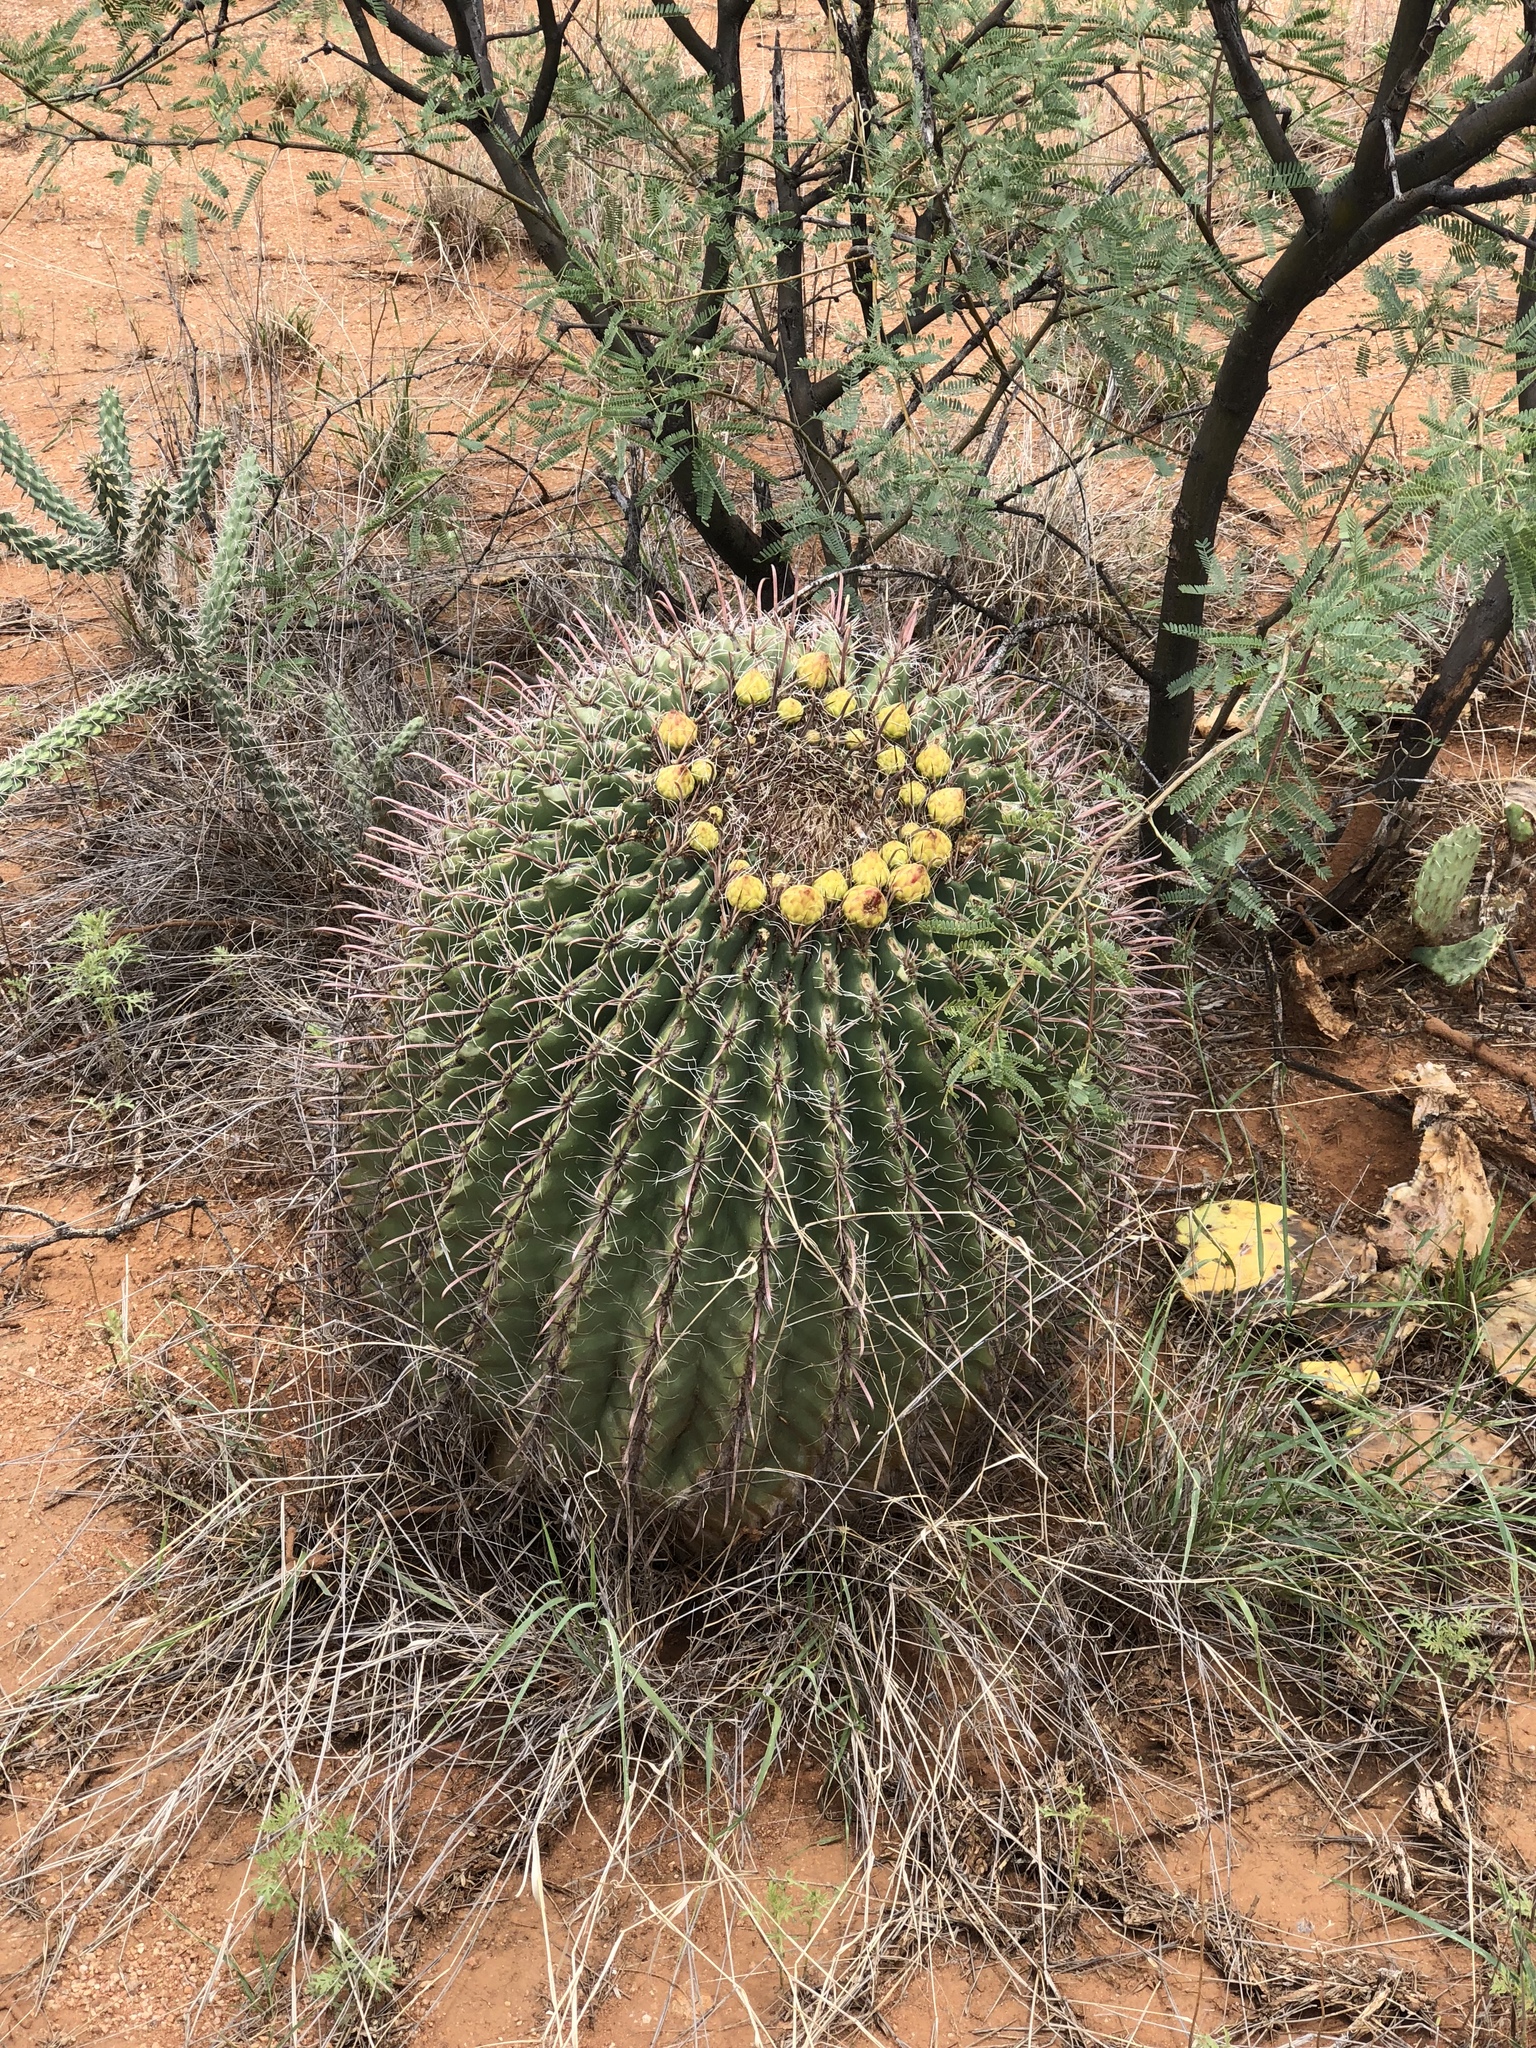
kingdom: Plantae
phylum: Tracheophyta
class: Magnoliopsida
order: Caryophyllales
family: Cactaceae
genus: Ferocactus
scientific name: Ferocactus wislizeni
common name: Candy barrel cactus
